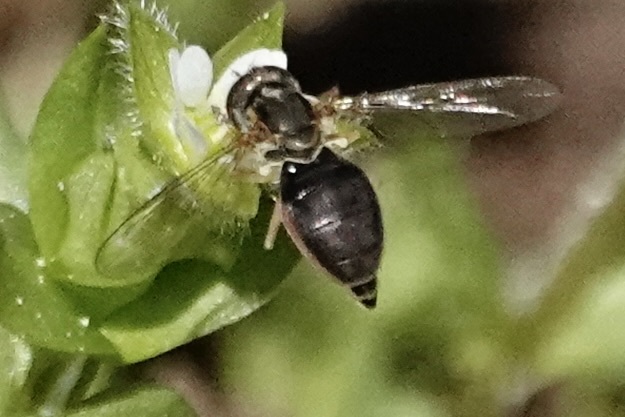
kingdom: Animalia
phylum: Arthropoda
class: Insecta
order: Diptera
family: Syrphidae
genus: Toxomerus
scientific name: Toxomerus marginatus
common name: Syrphid fly
